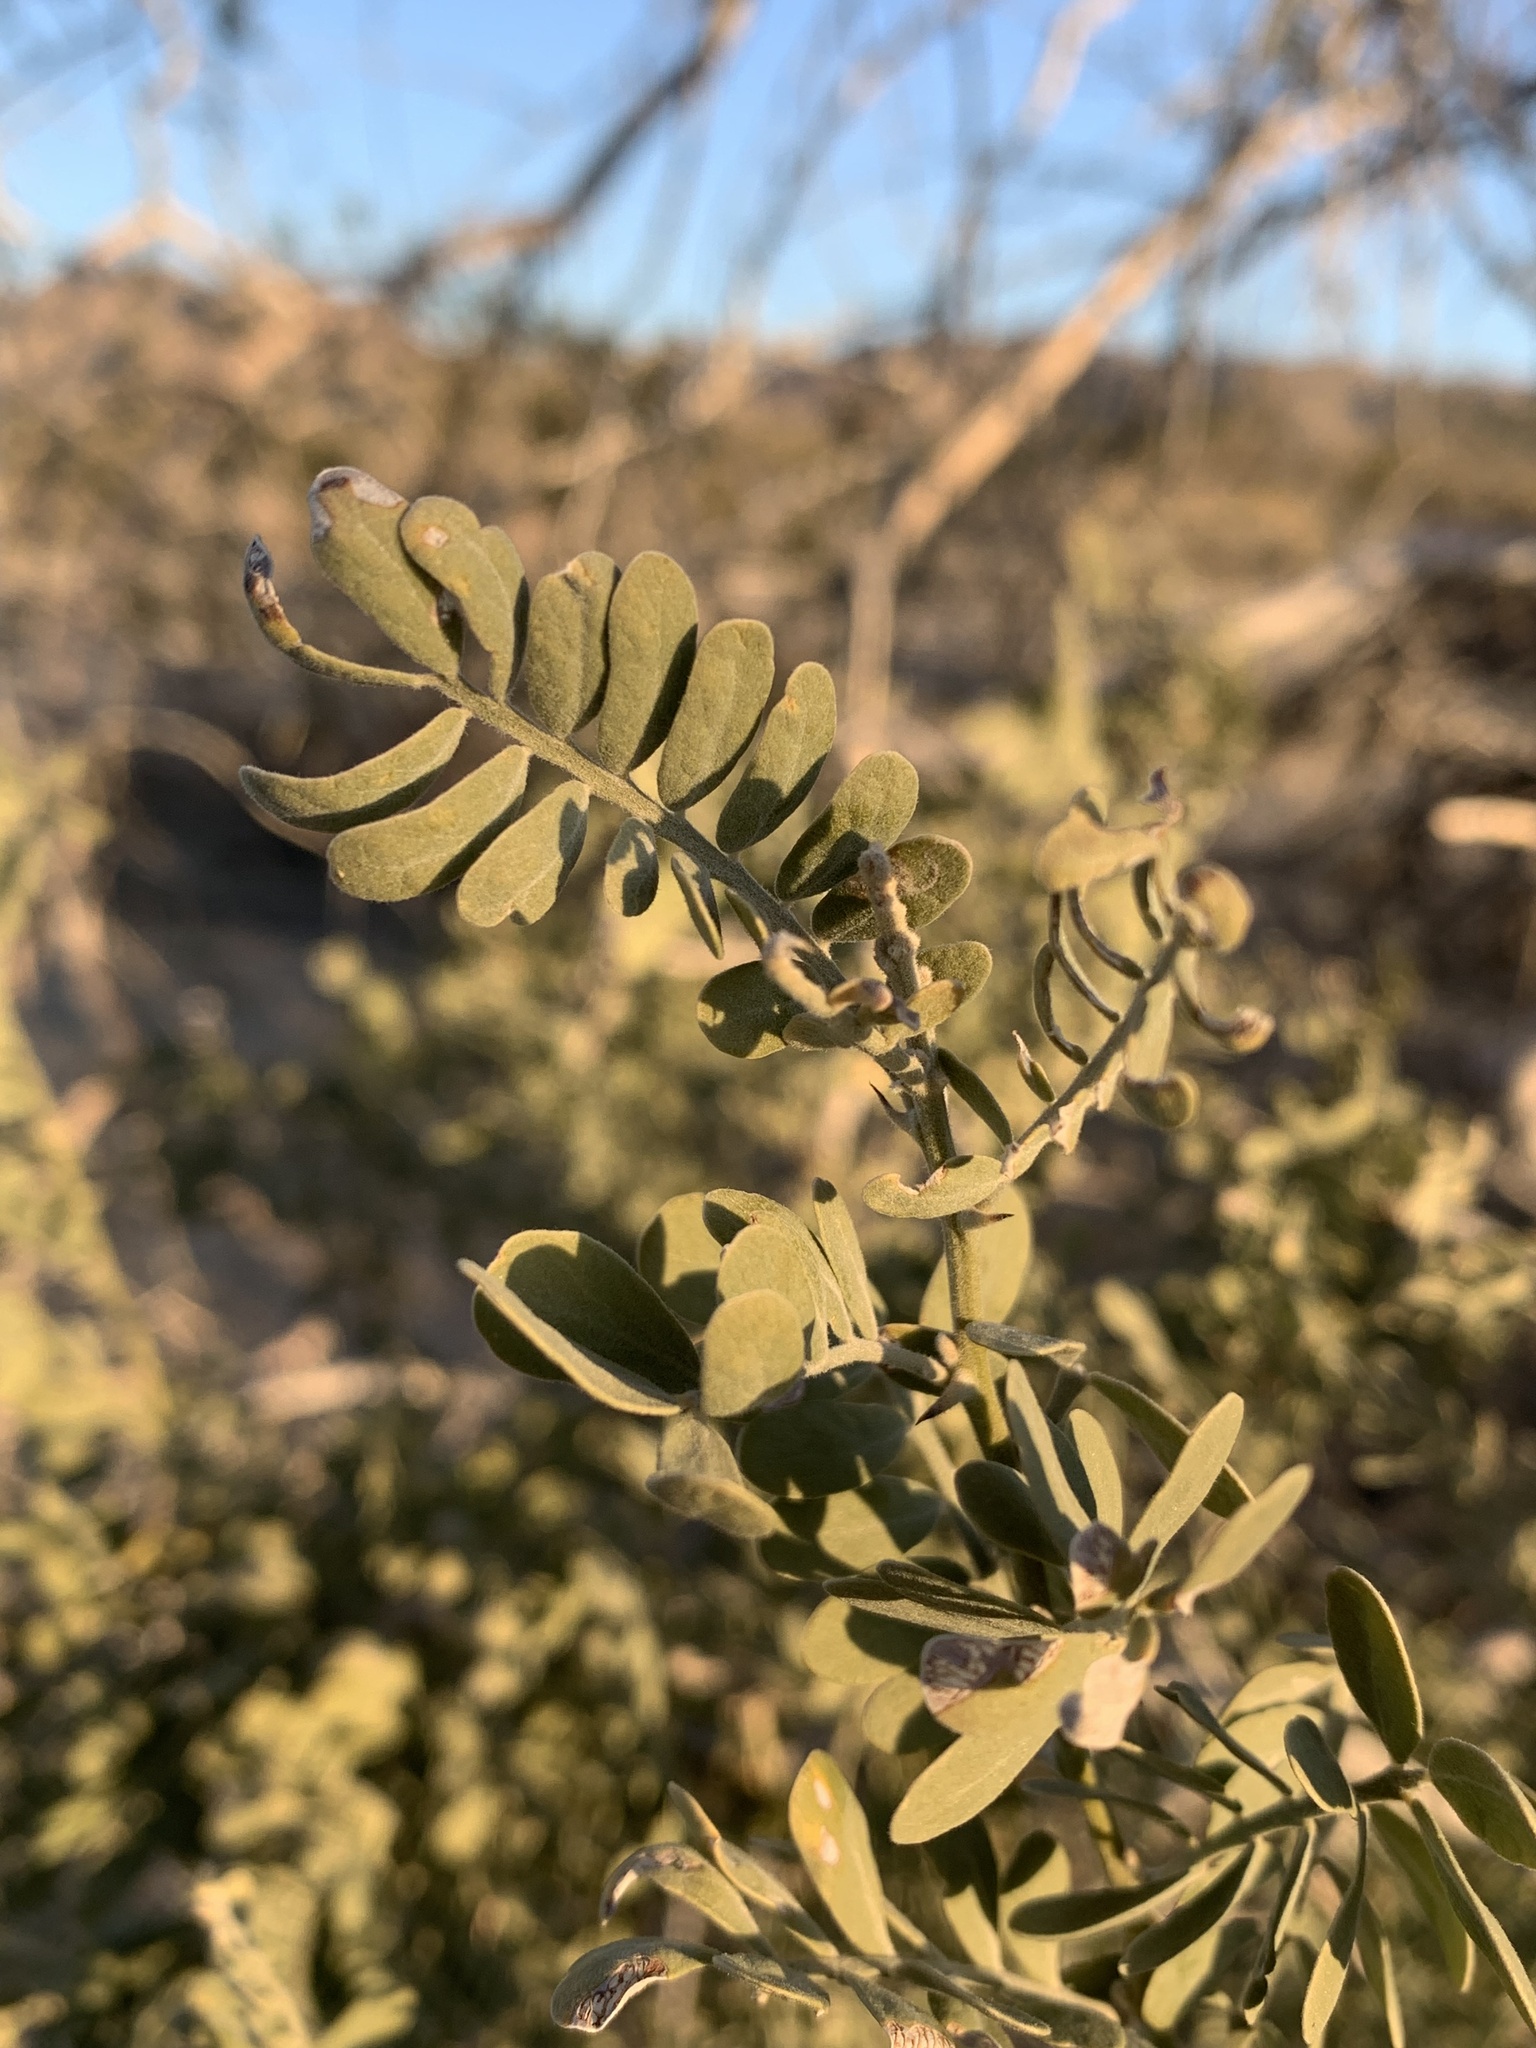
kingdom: Plantae
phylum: Tracheophyta
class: Magnoliopsida
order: Fabales
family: Fabaceae
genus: Olneya
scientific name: Olneya tesota
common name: Desert ironwood
